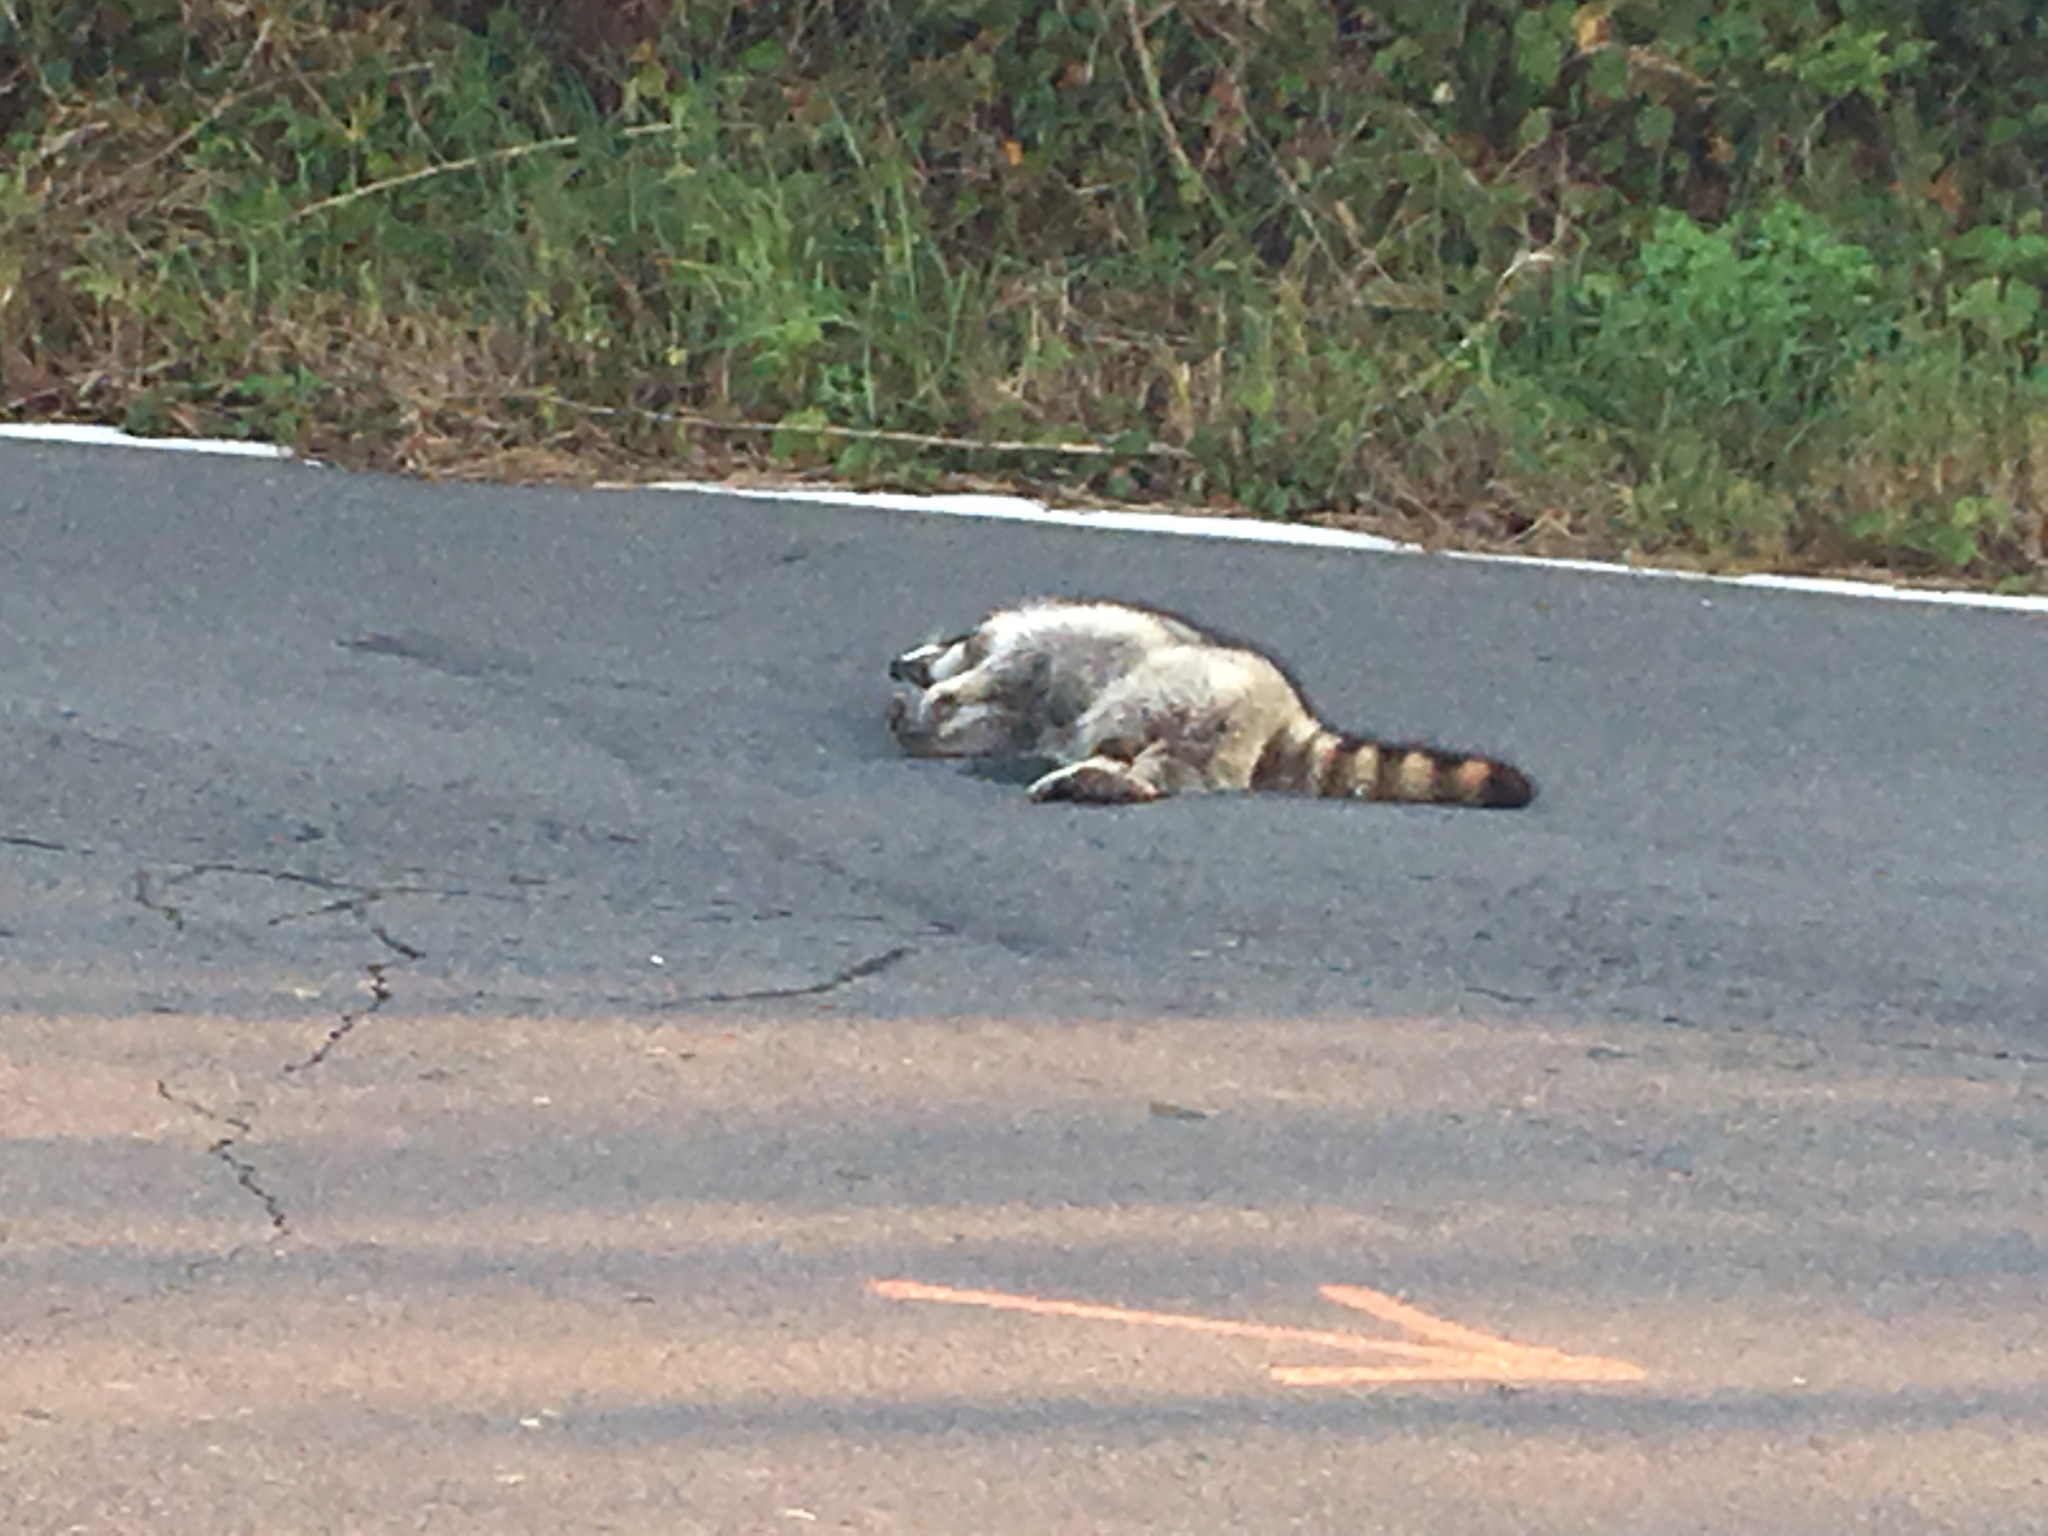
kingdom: Animalia
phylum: Chordata
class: Mammalia
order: Carnivora
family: Procyonidae
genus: Procyon
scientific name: Procyon lotor
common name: Raccoon
